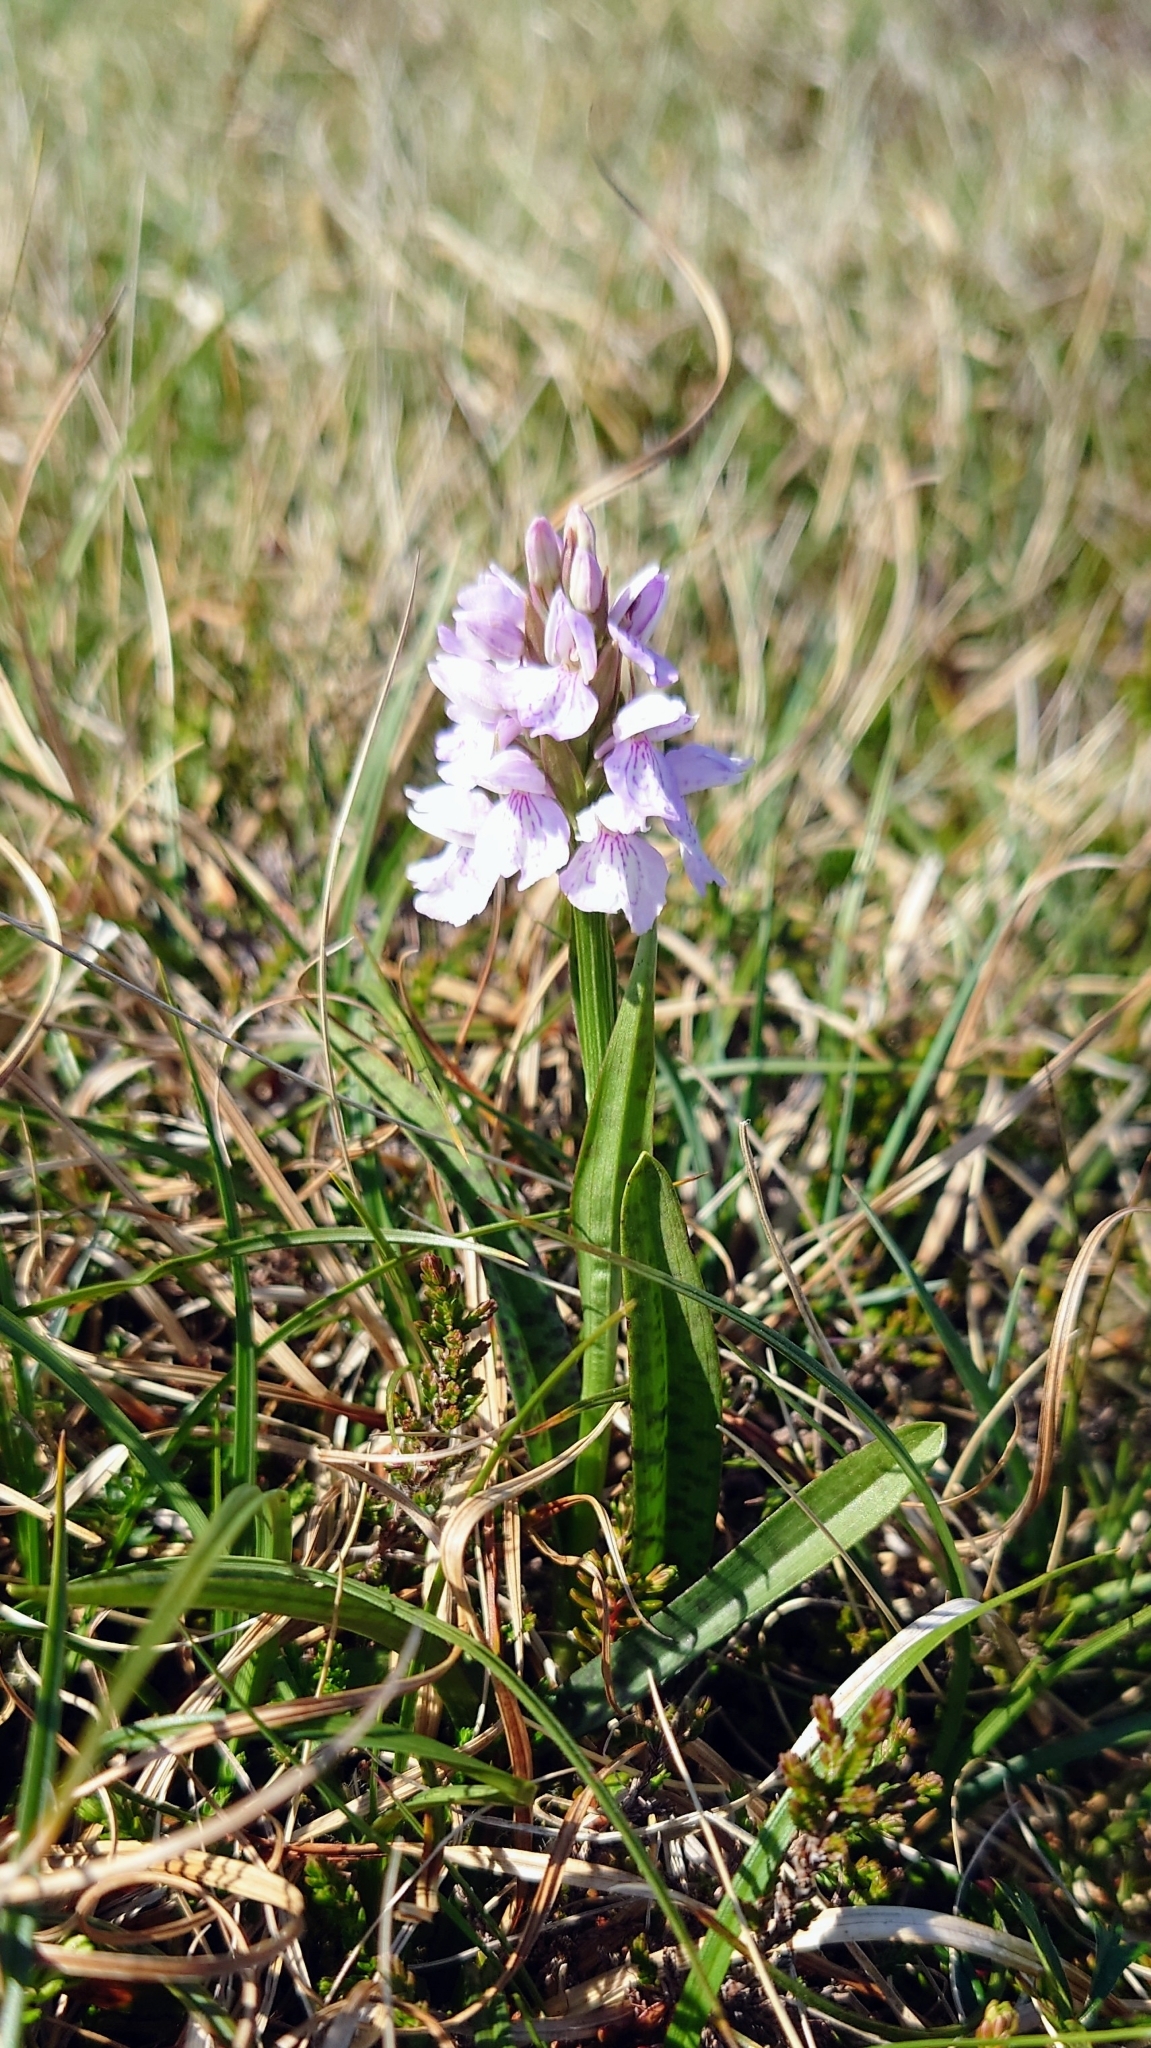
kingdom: Plantae
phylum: Tracheophyta
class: Liliopsida
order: Asparagales
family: Orchidaceae
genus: Dactylorhiza
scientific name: Dactylorhiza maculata
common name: Heath spotted-orchid
